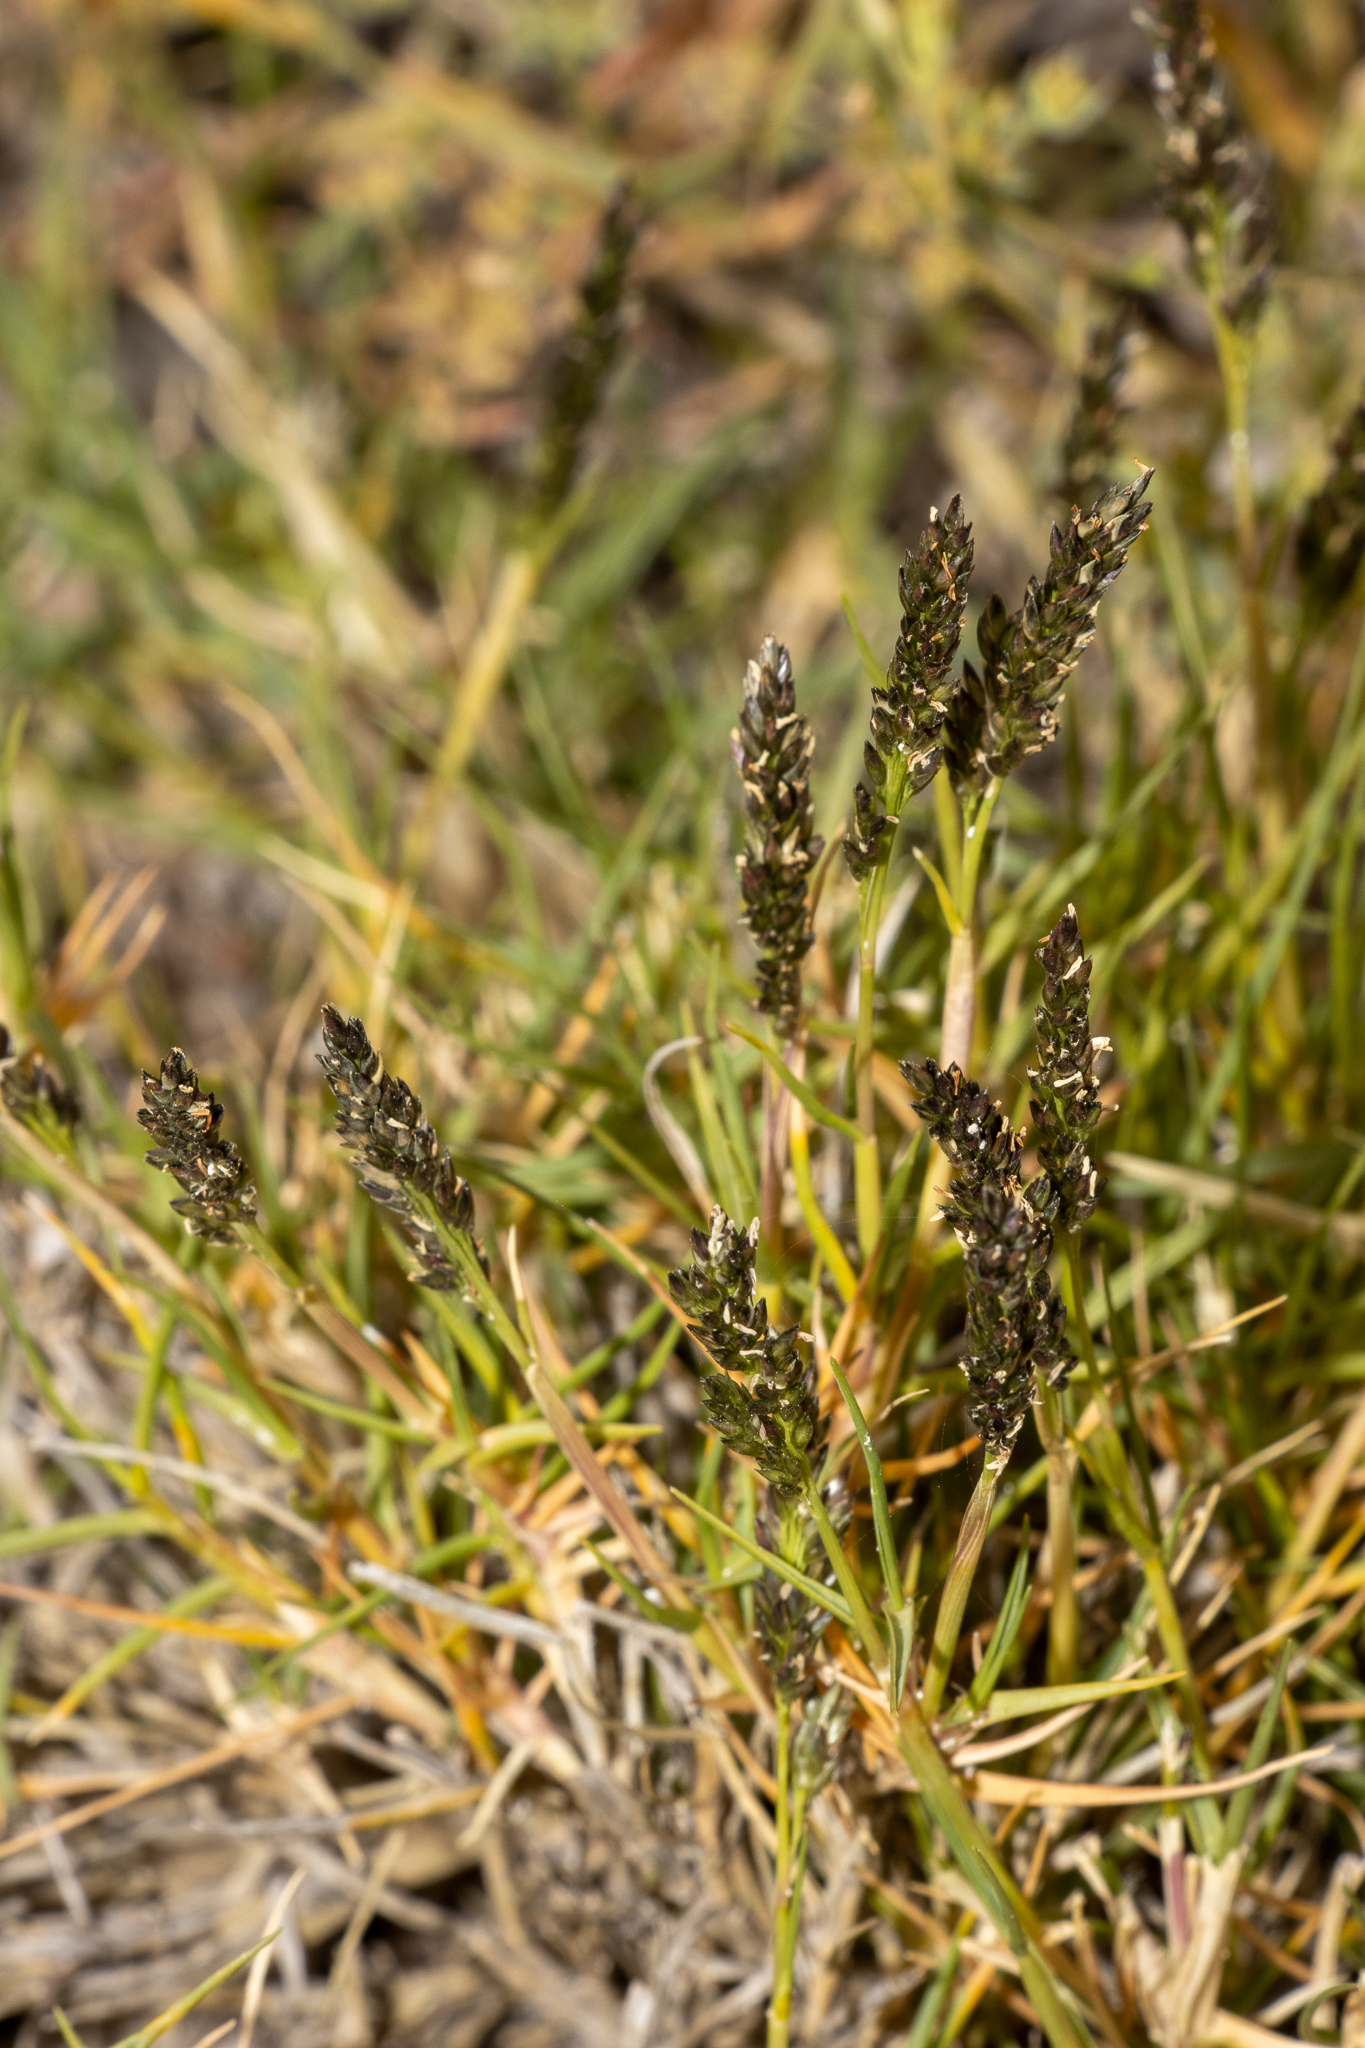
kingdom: Plantae
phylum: Tracheophyta
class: Liliopsida
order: Poales
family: Poaceae
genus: Sporobolus
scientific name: Sporobolus virginicus
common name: Beach dropseed
